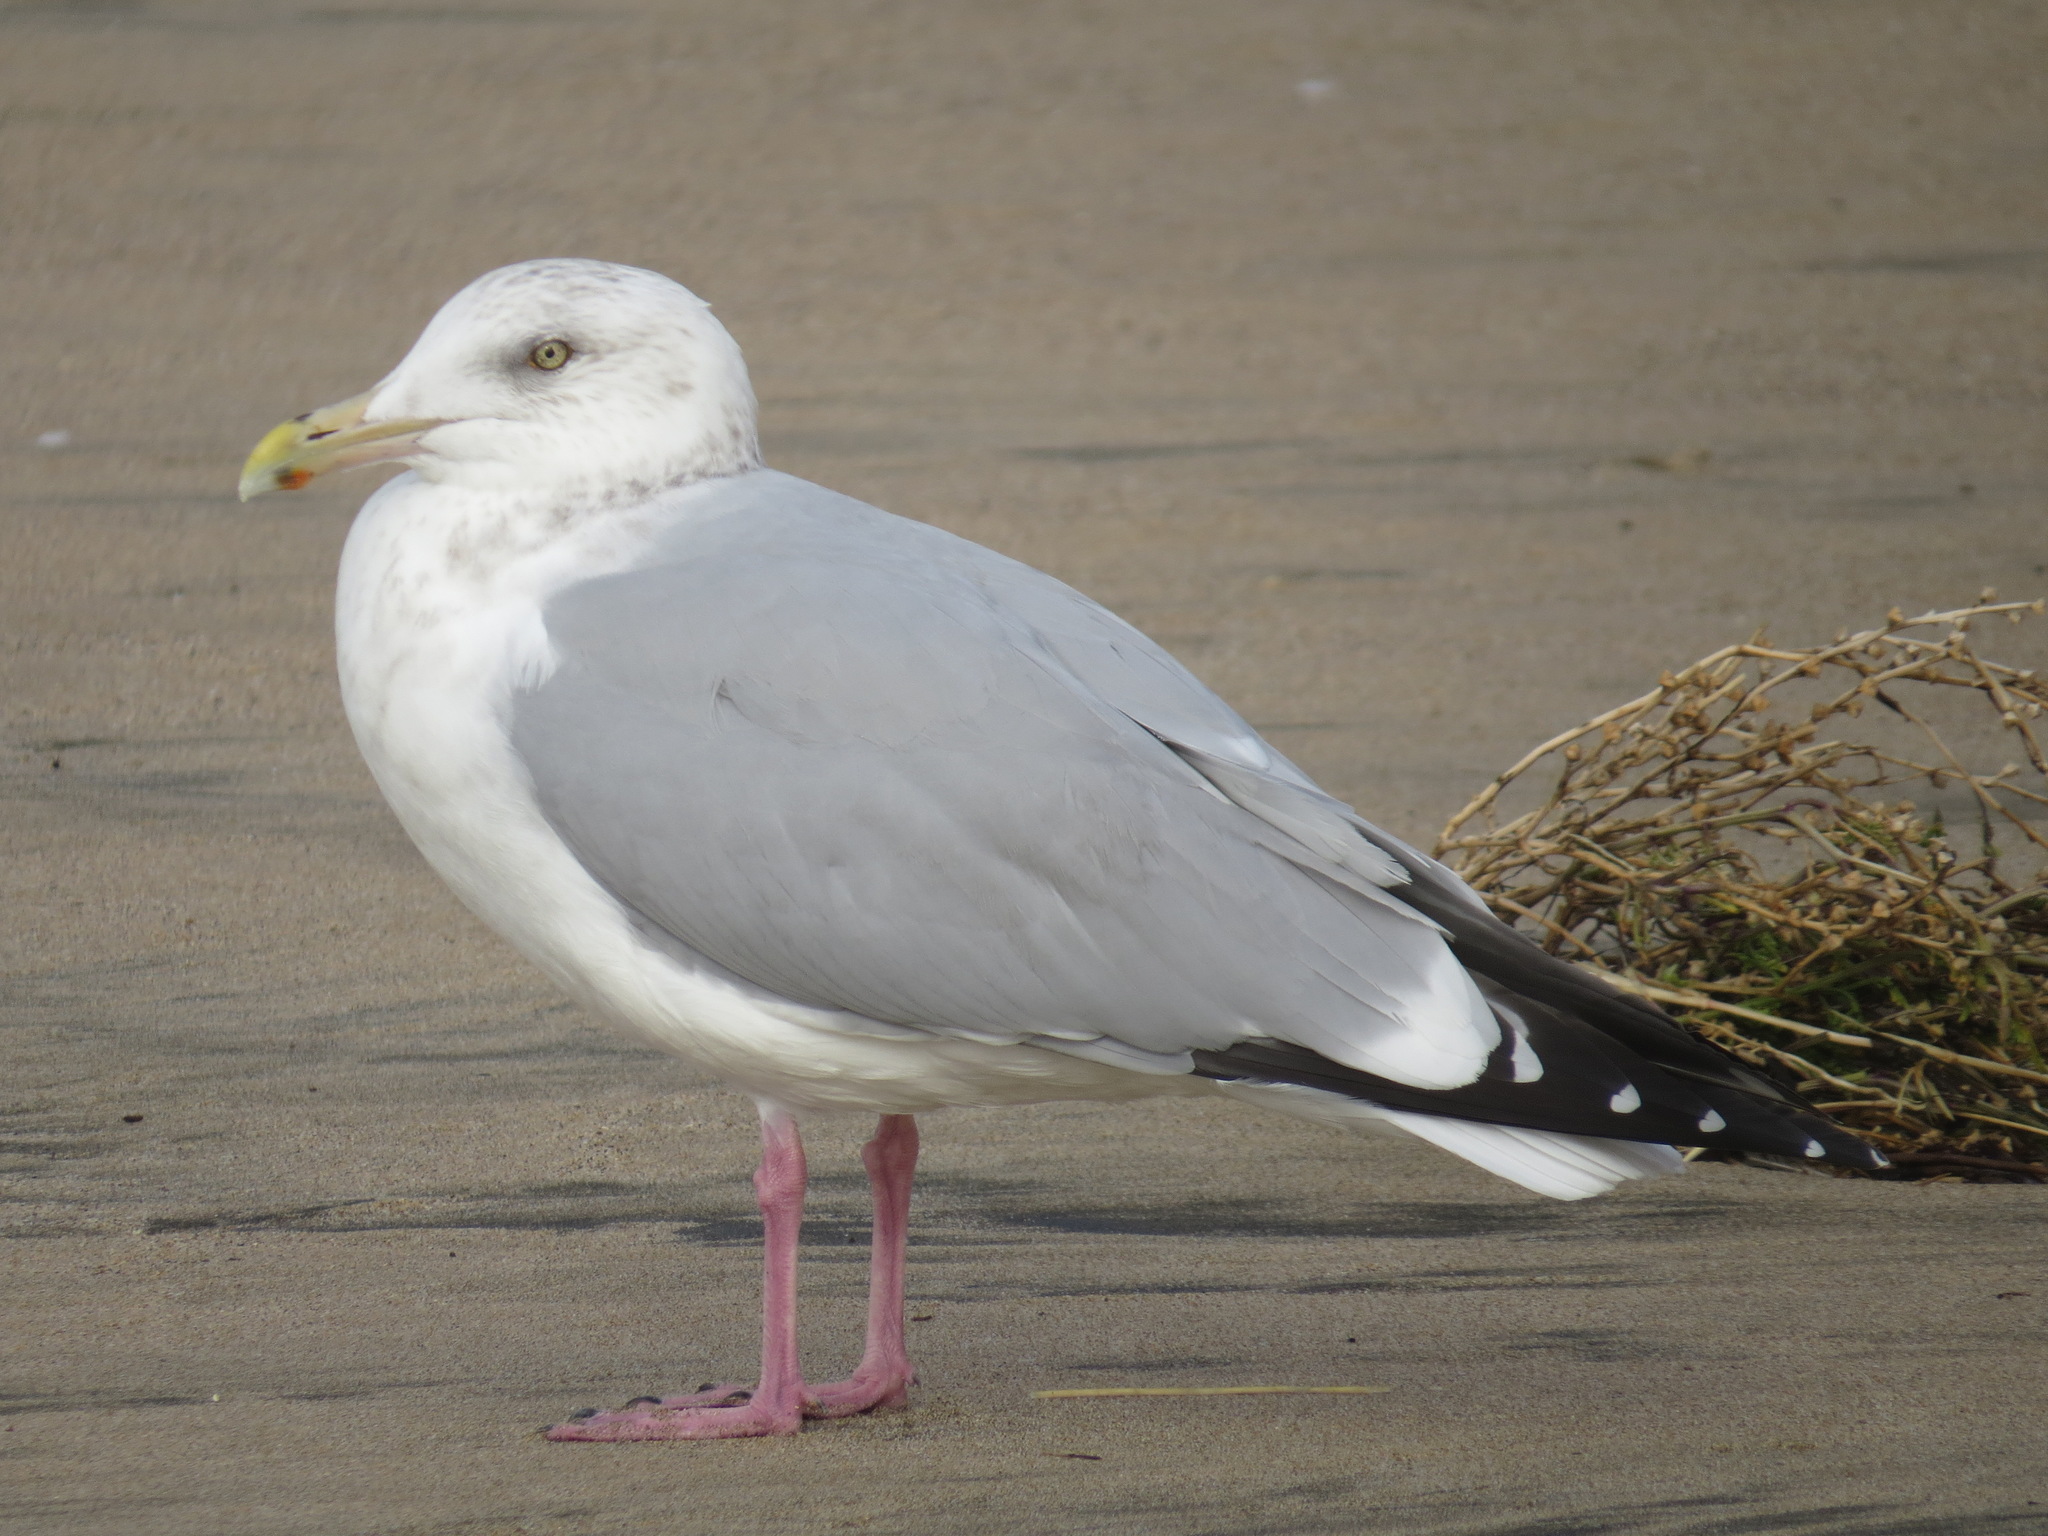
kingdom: Animalia
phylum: Chordata
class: Aves
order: Charadriiformes
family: Laridae
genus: Larus
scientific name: Larus argentatus
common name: Herring gull
